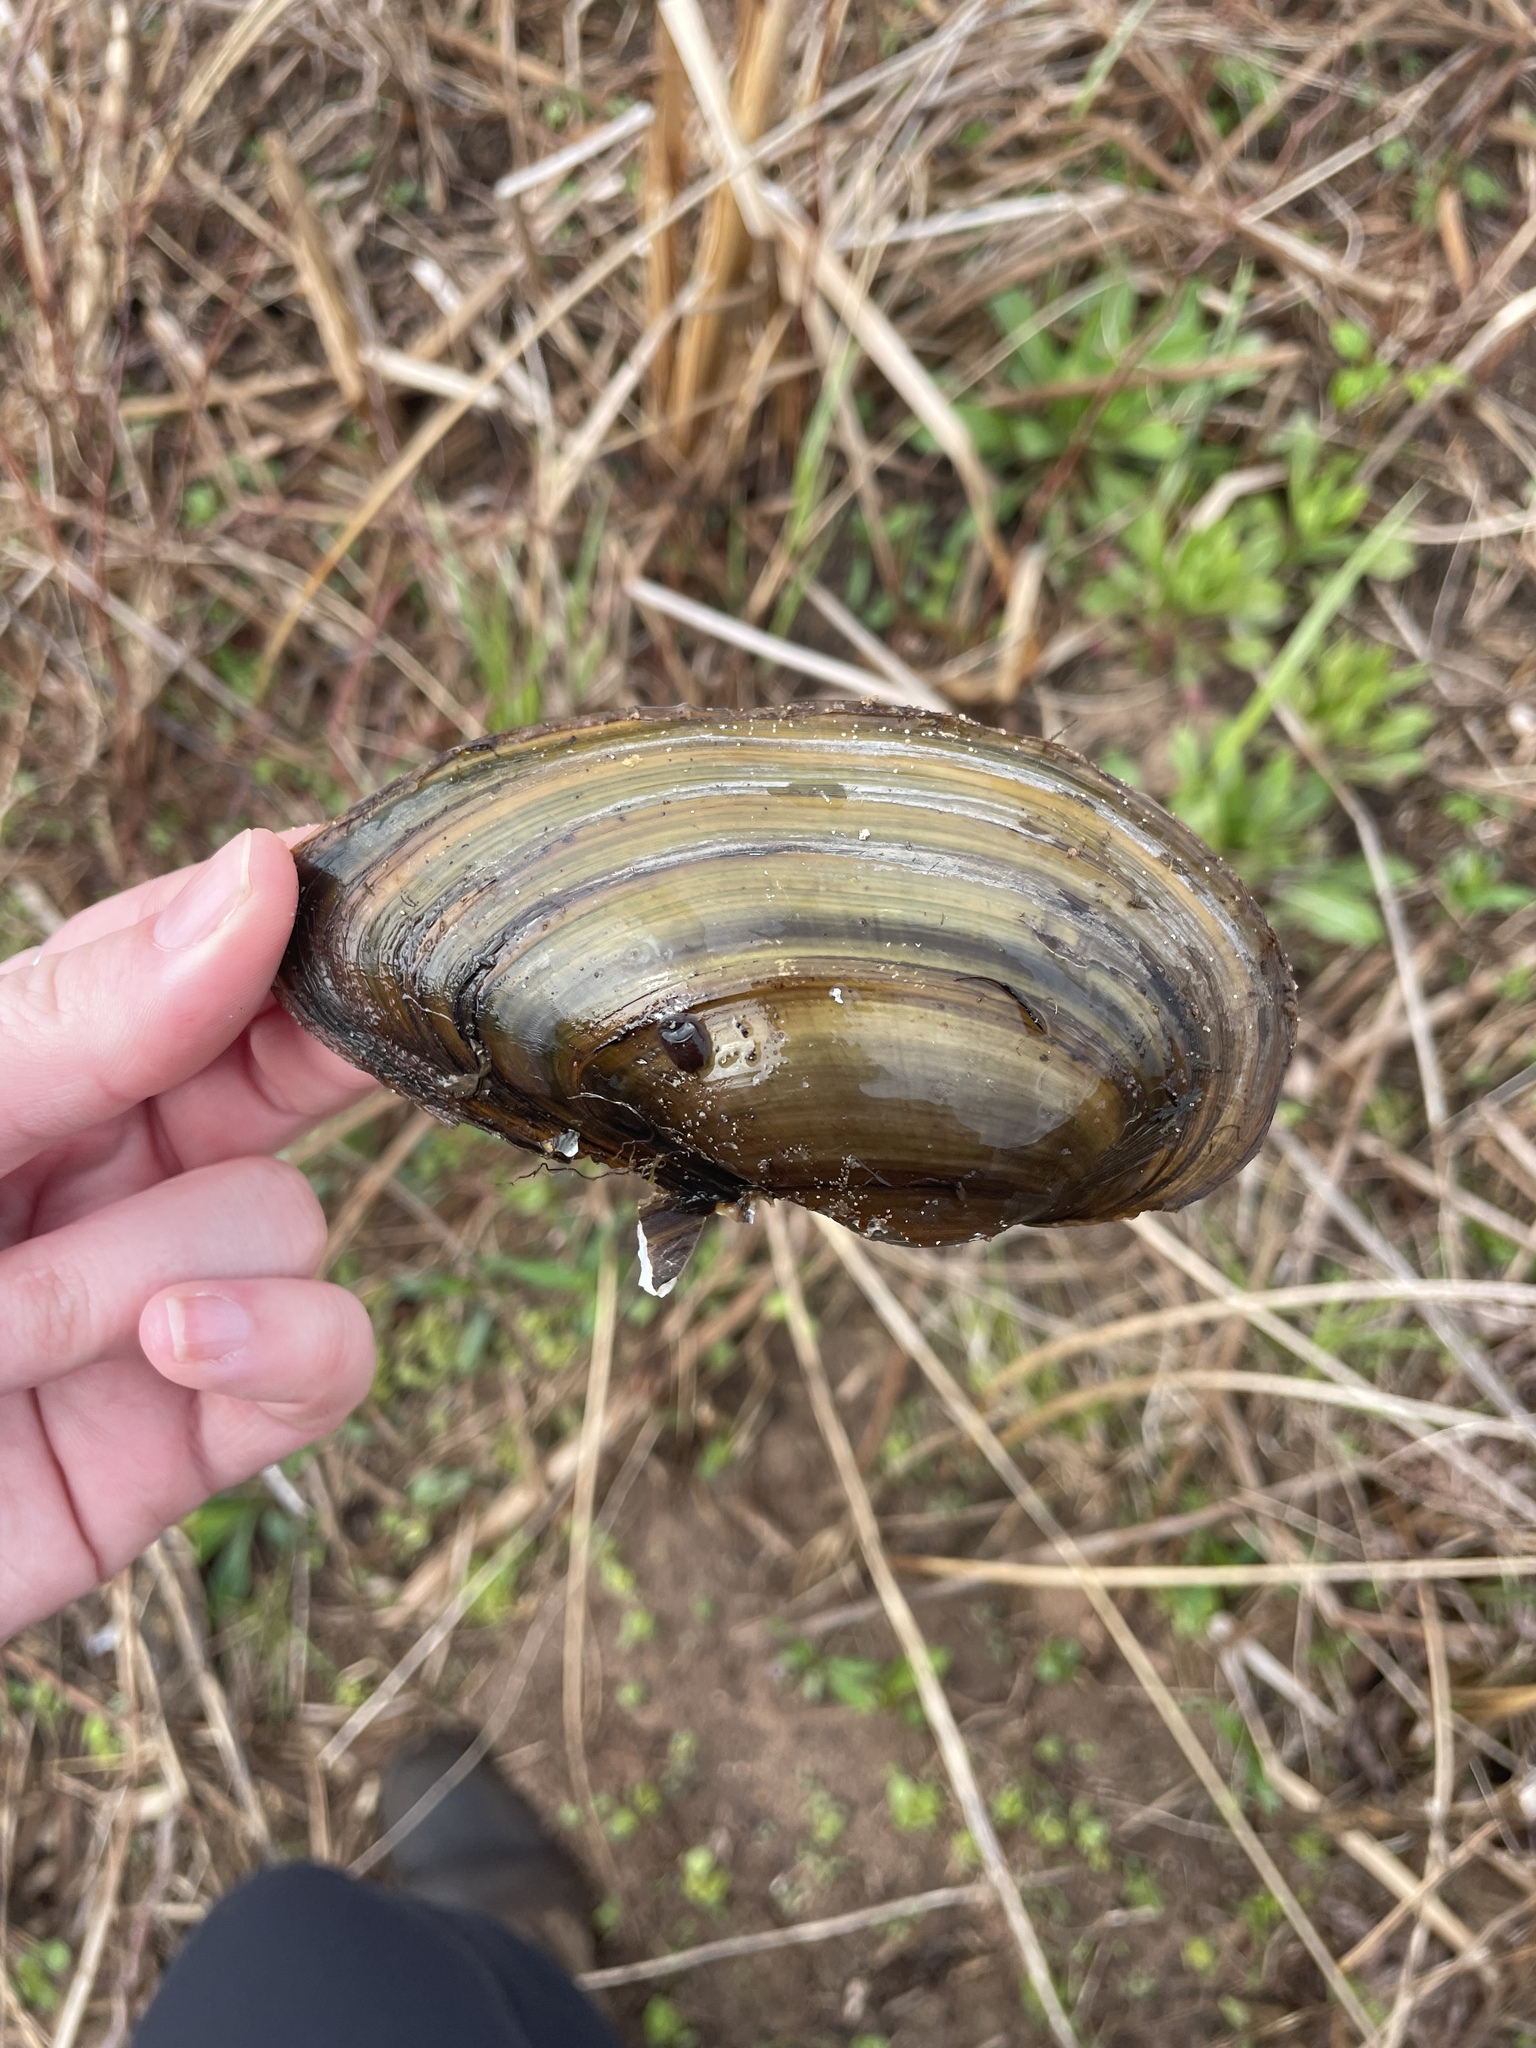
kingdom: Animalia
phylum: Mollusca
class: Bivalvia
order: Unionida
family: Unionidae
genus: Pyganodon
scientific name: Pyganodon cataracta
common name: Eastern floater
